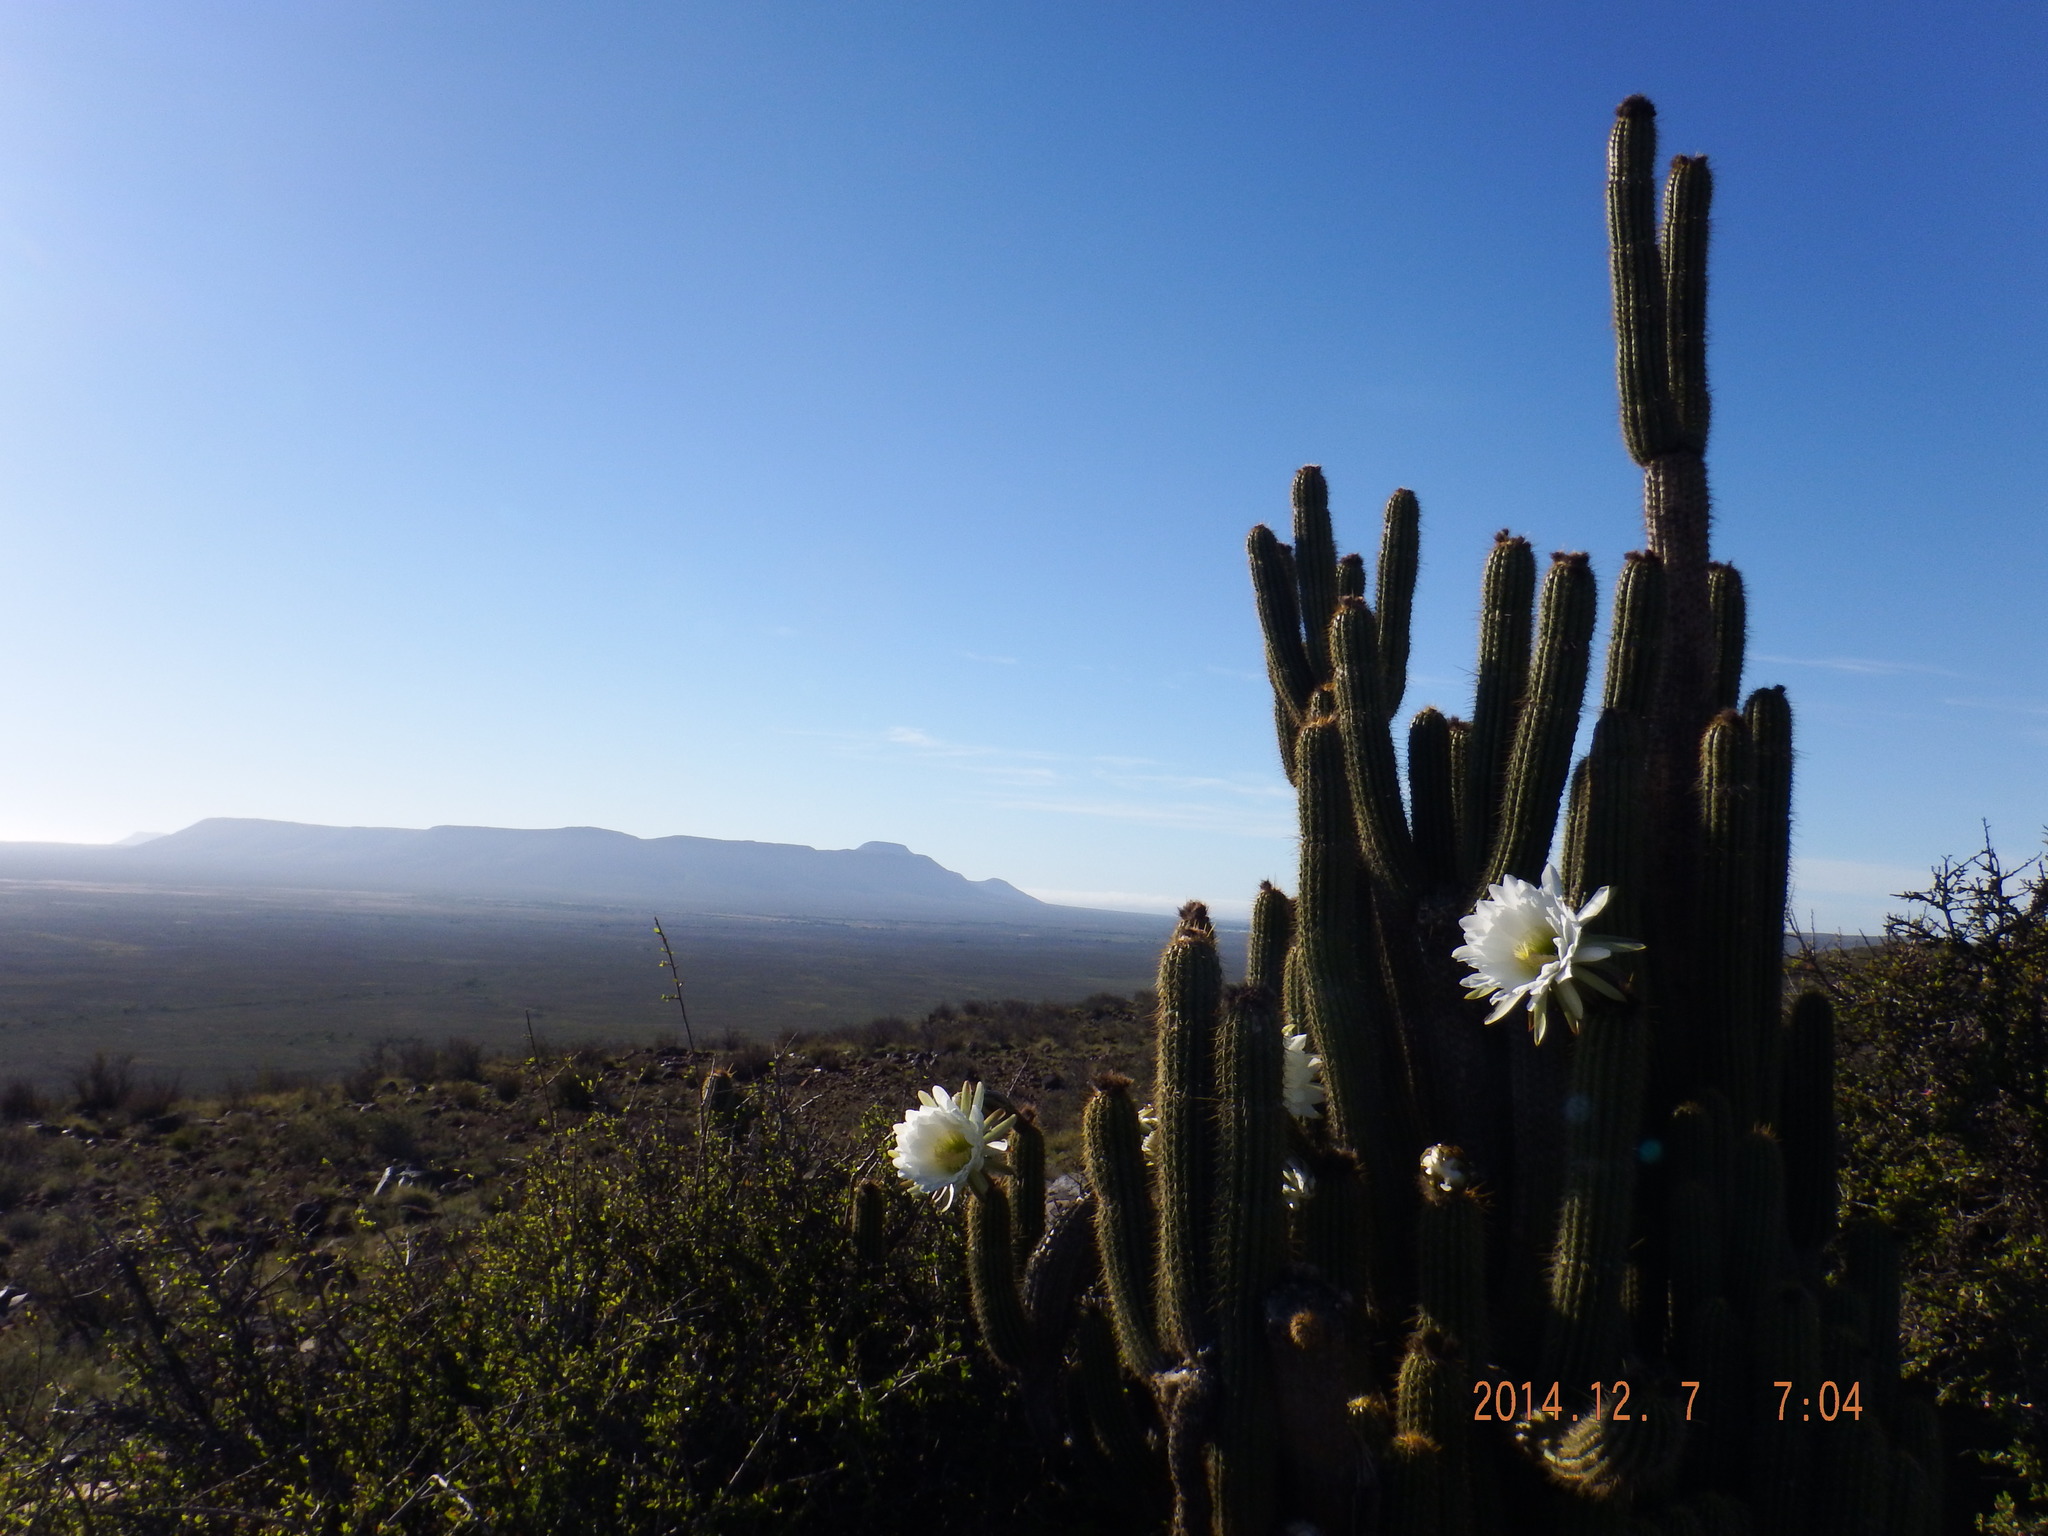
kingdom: Plantae
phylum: Tracheophyta
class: Magnoliopsida
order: Caryophyllales
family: Cactaceae
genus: Soehrensia
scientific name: Soehrensia spachiana
